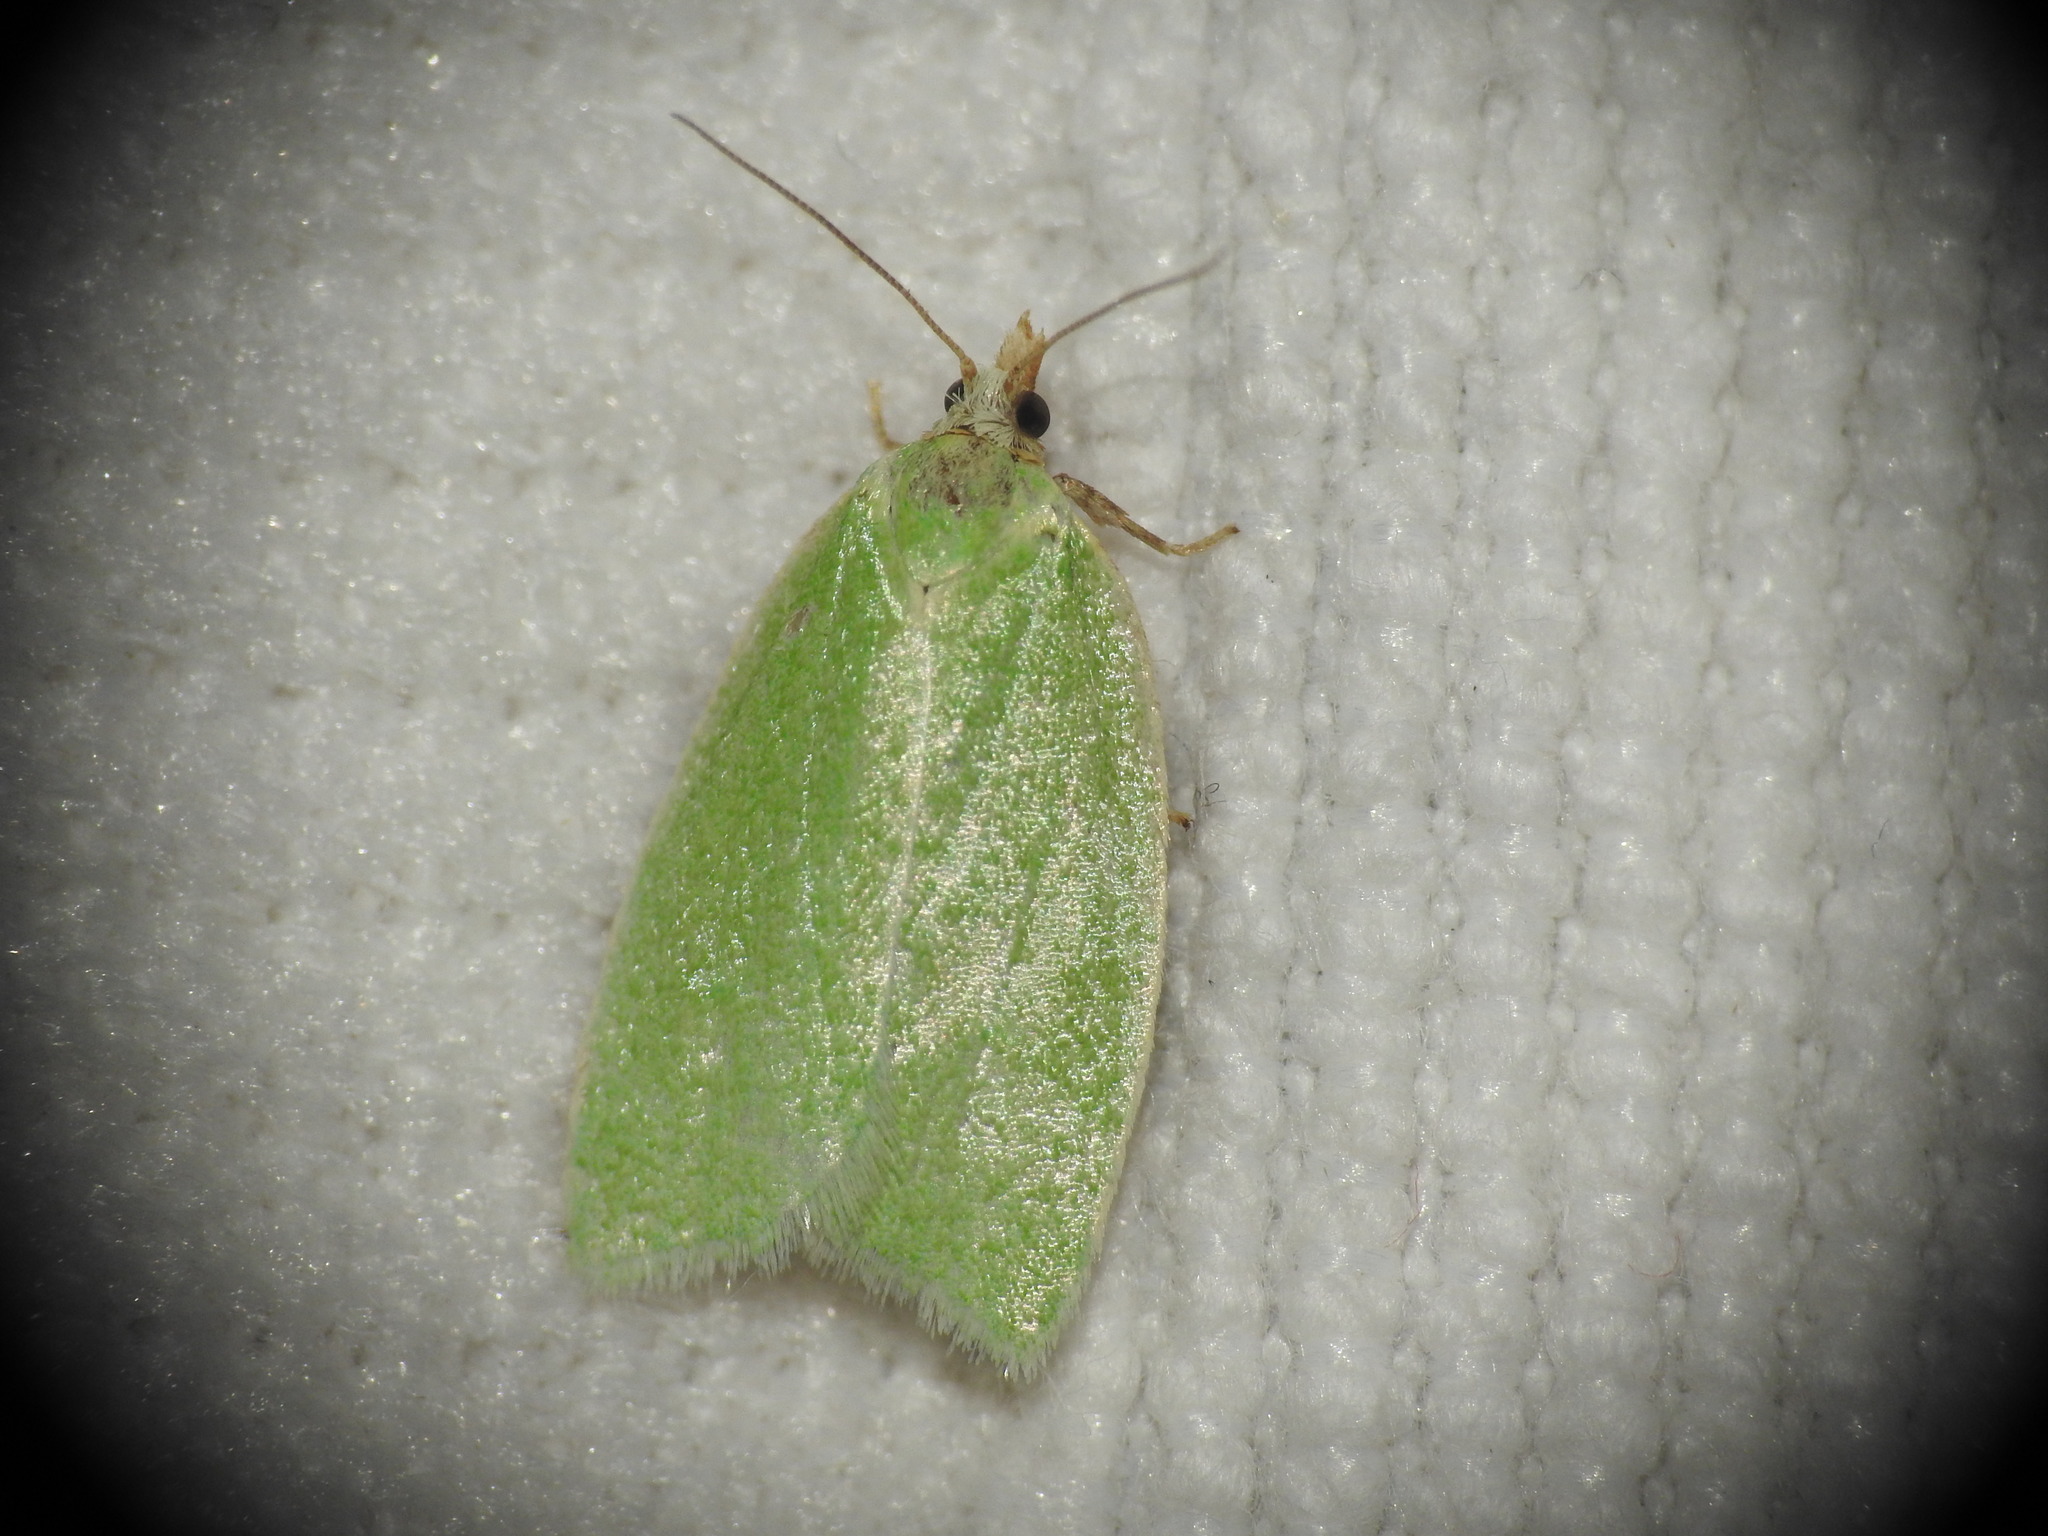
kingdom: Animalia
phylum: Arthropoda
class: Insecta
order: Lepidoptera
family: Tortricidae
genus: Tortrix
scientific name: Tortrix viridana
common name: Green oak tortrix
